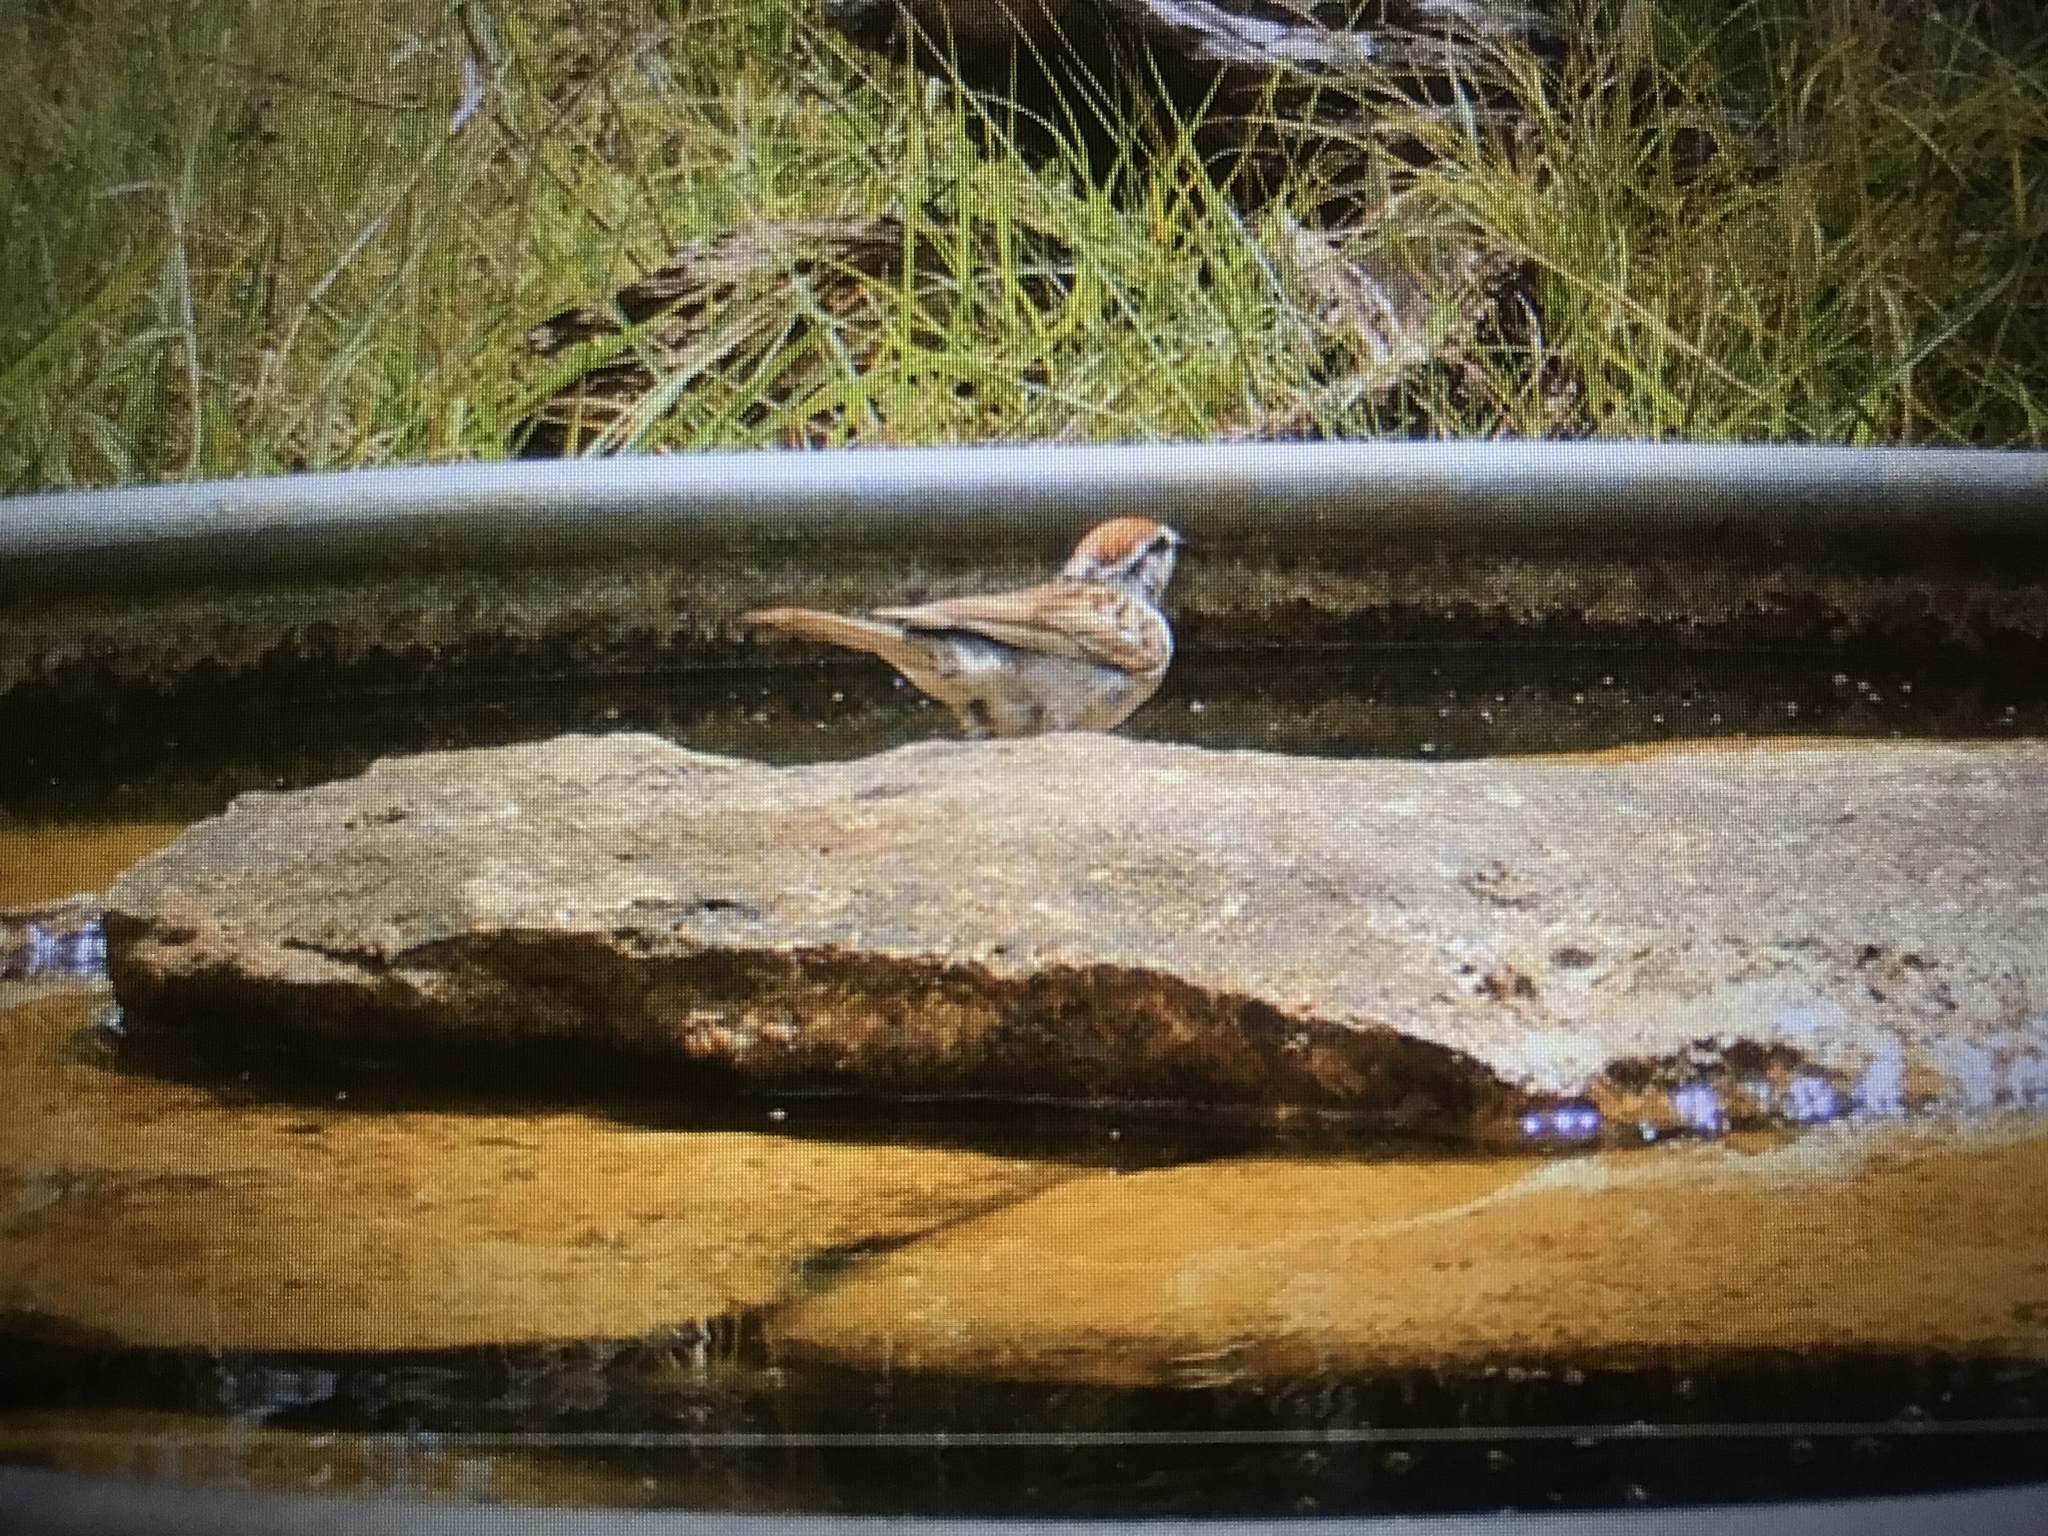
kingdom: Animalia
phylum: Chordata
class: Aves
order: Passeriformes
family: Passerellidae
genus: Spizella
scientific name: Spizella passerina
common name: Chipping sparrow
